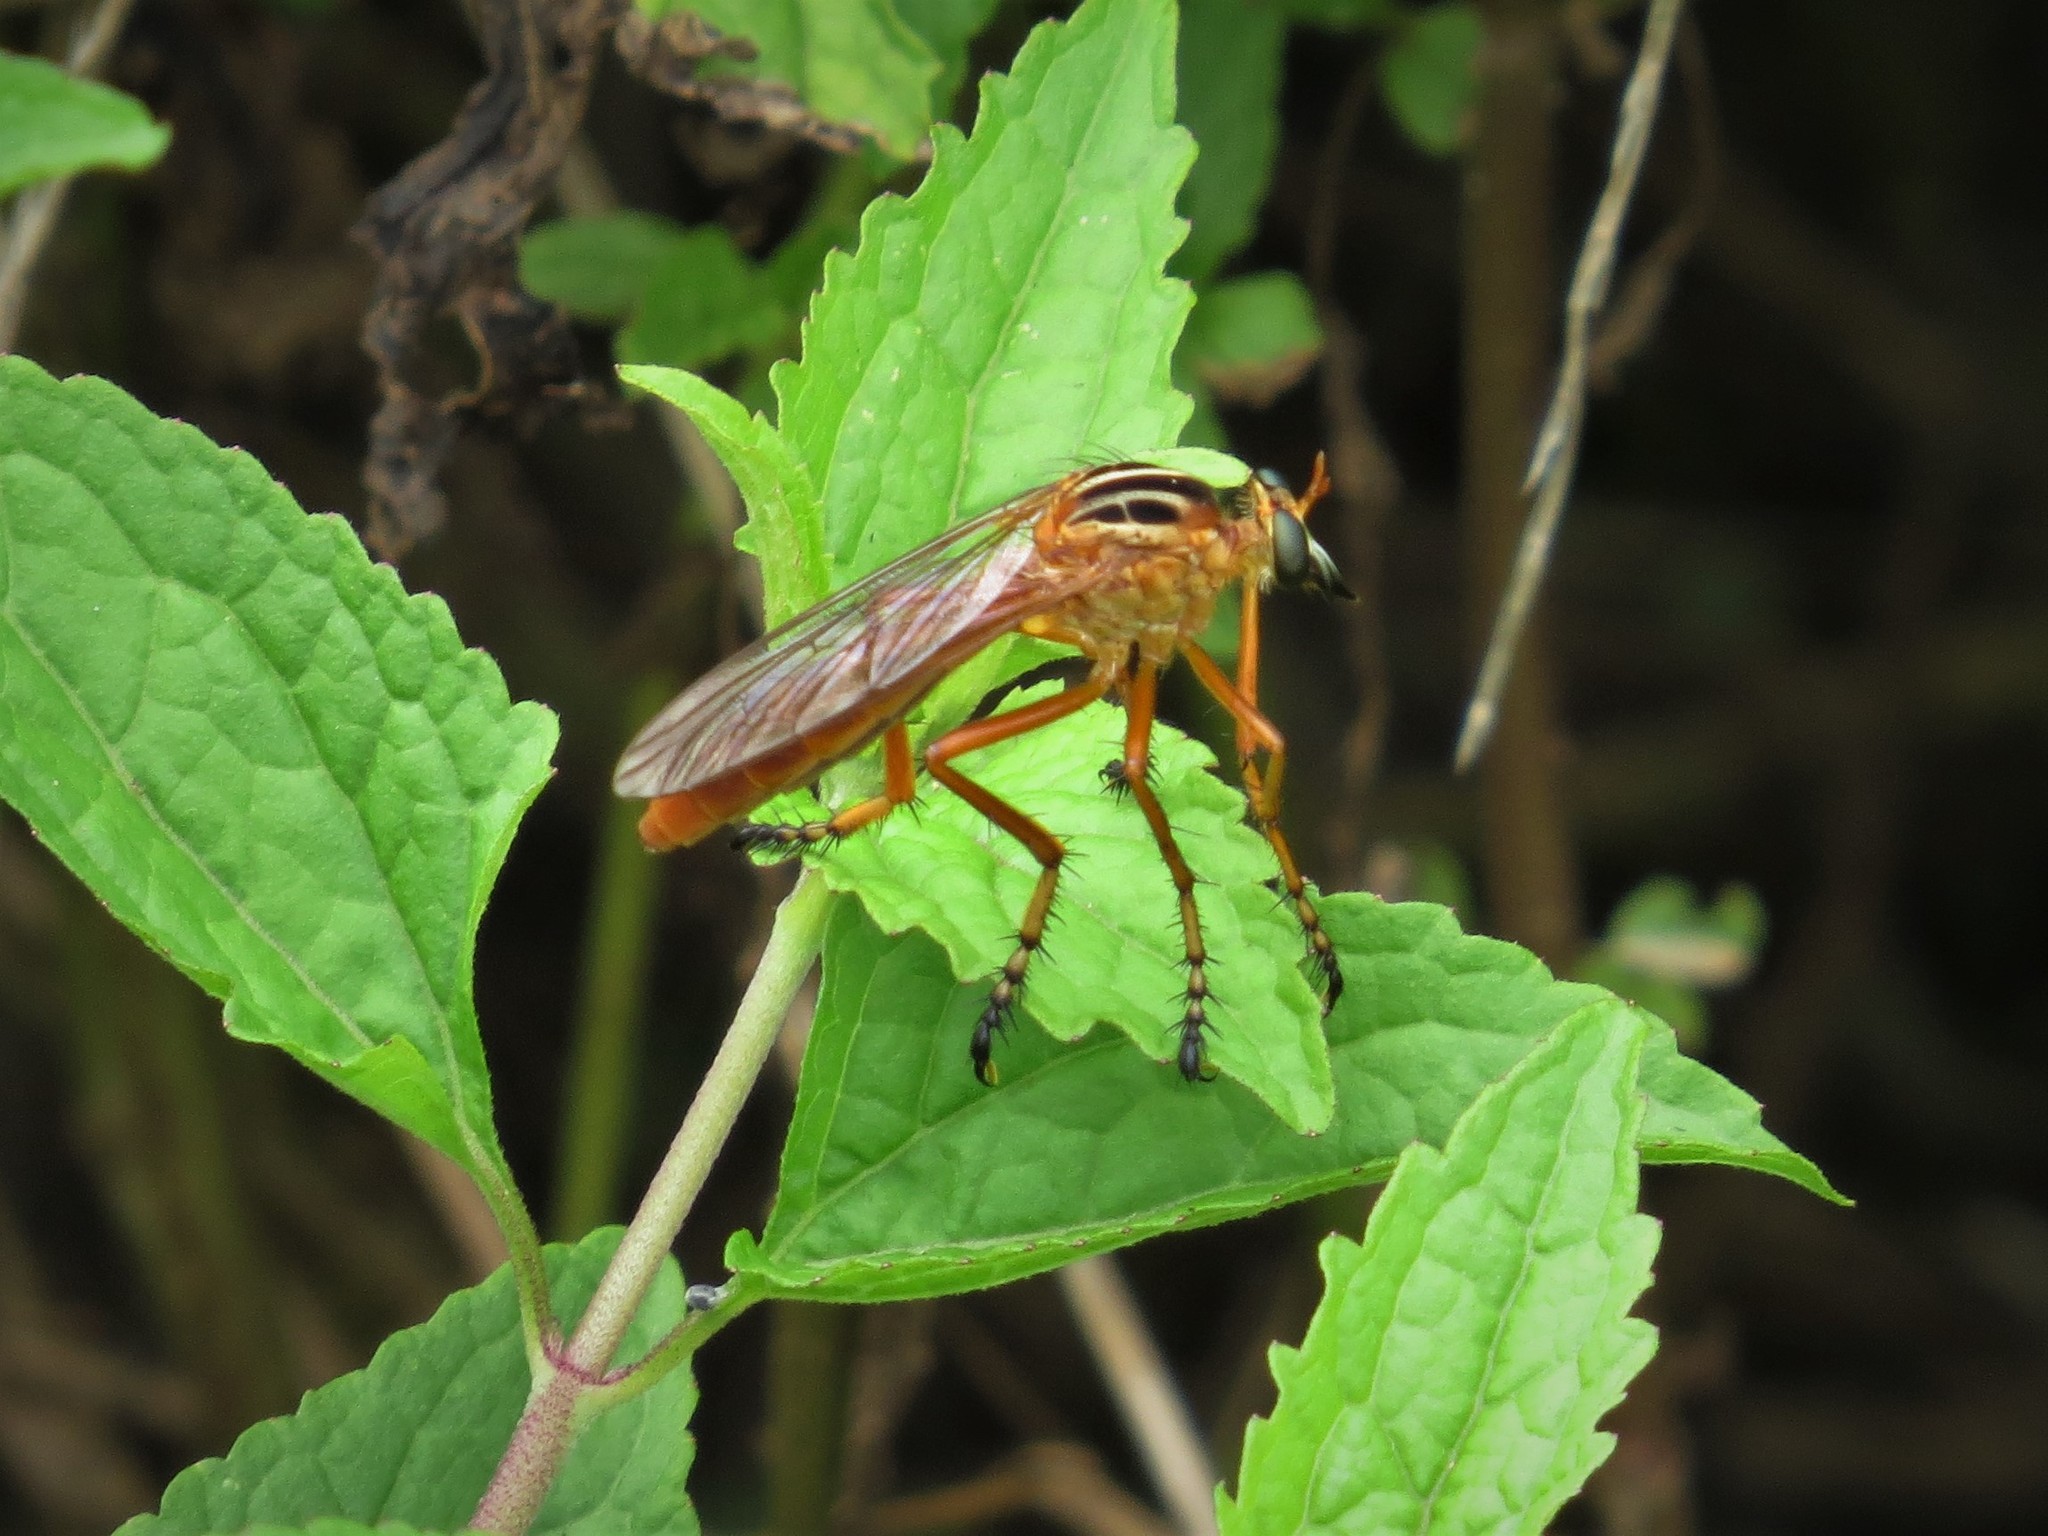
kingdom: Animalia
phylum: Arthropoda
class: Insecta
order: Diptera
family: Asilidae
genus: Diogmites
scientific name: Diogmites neoternatus
